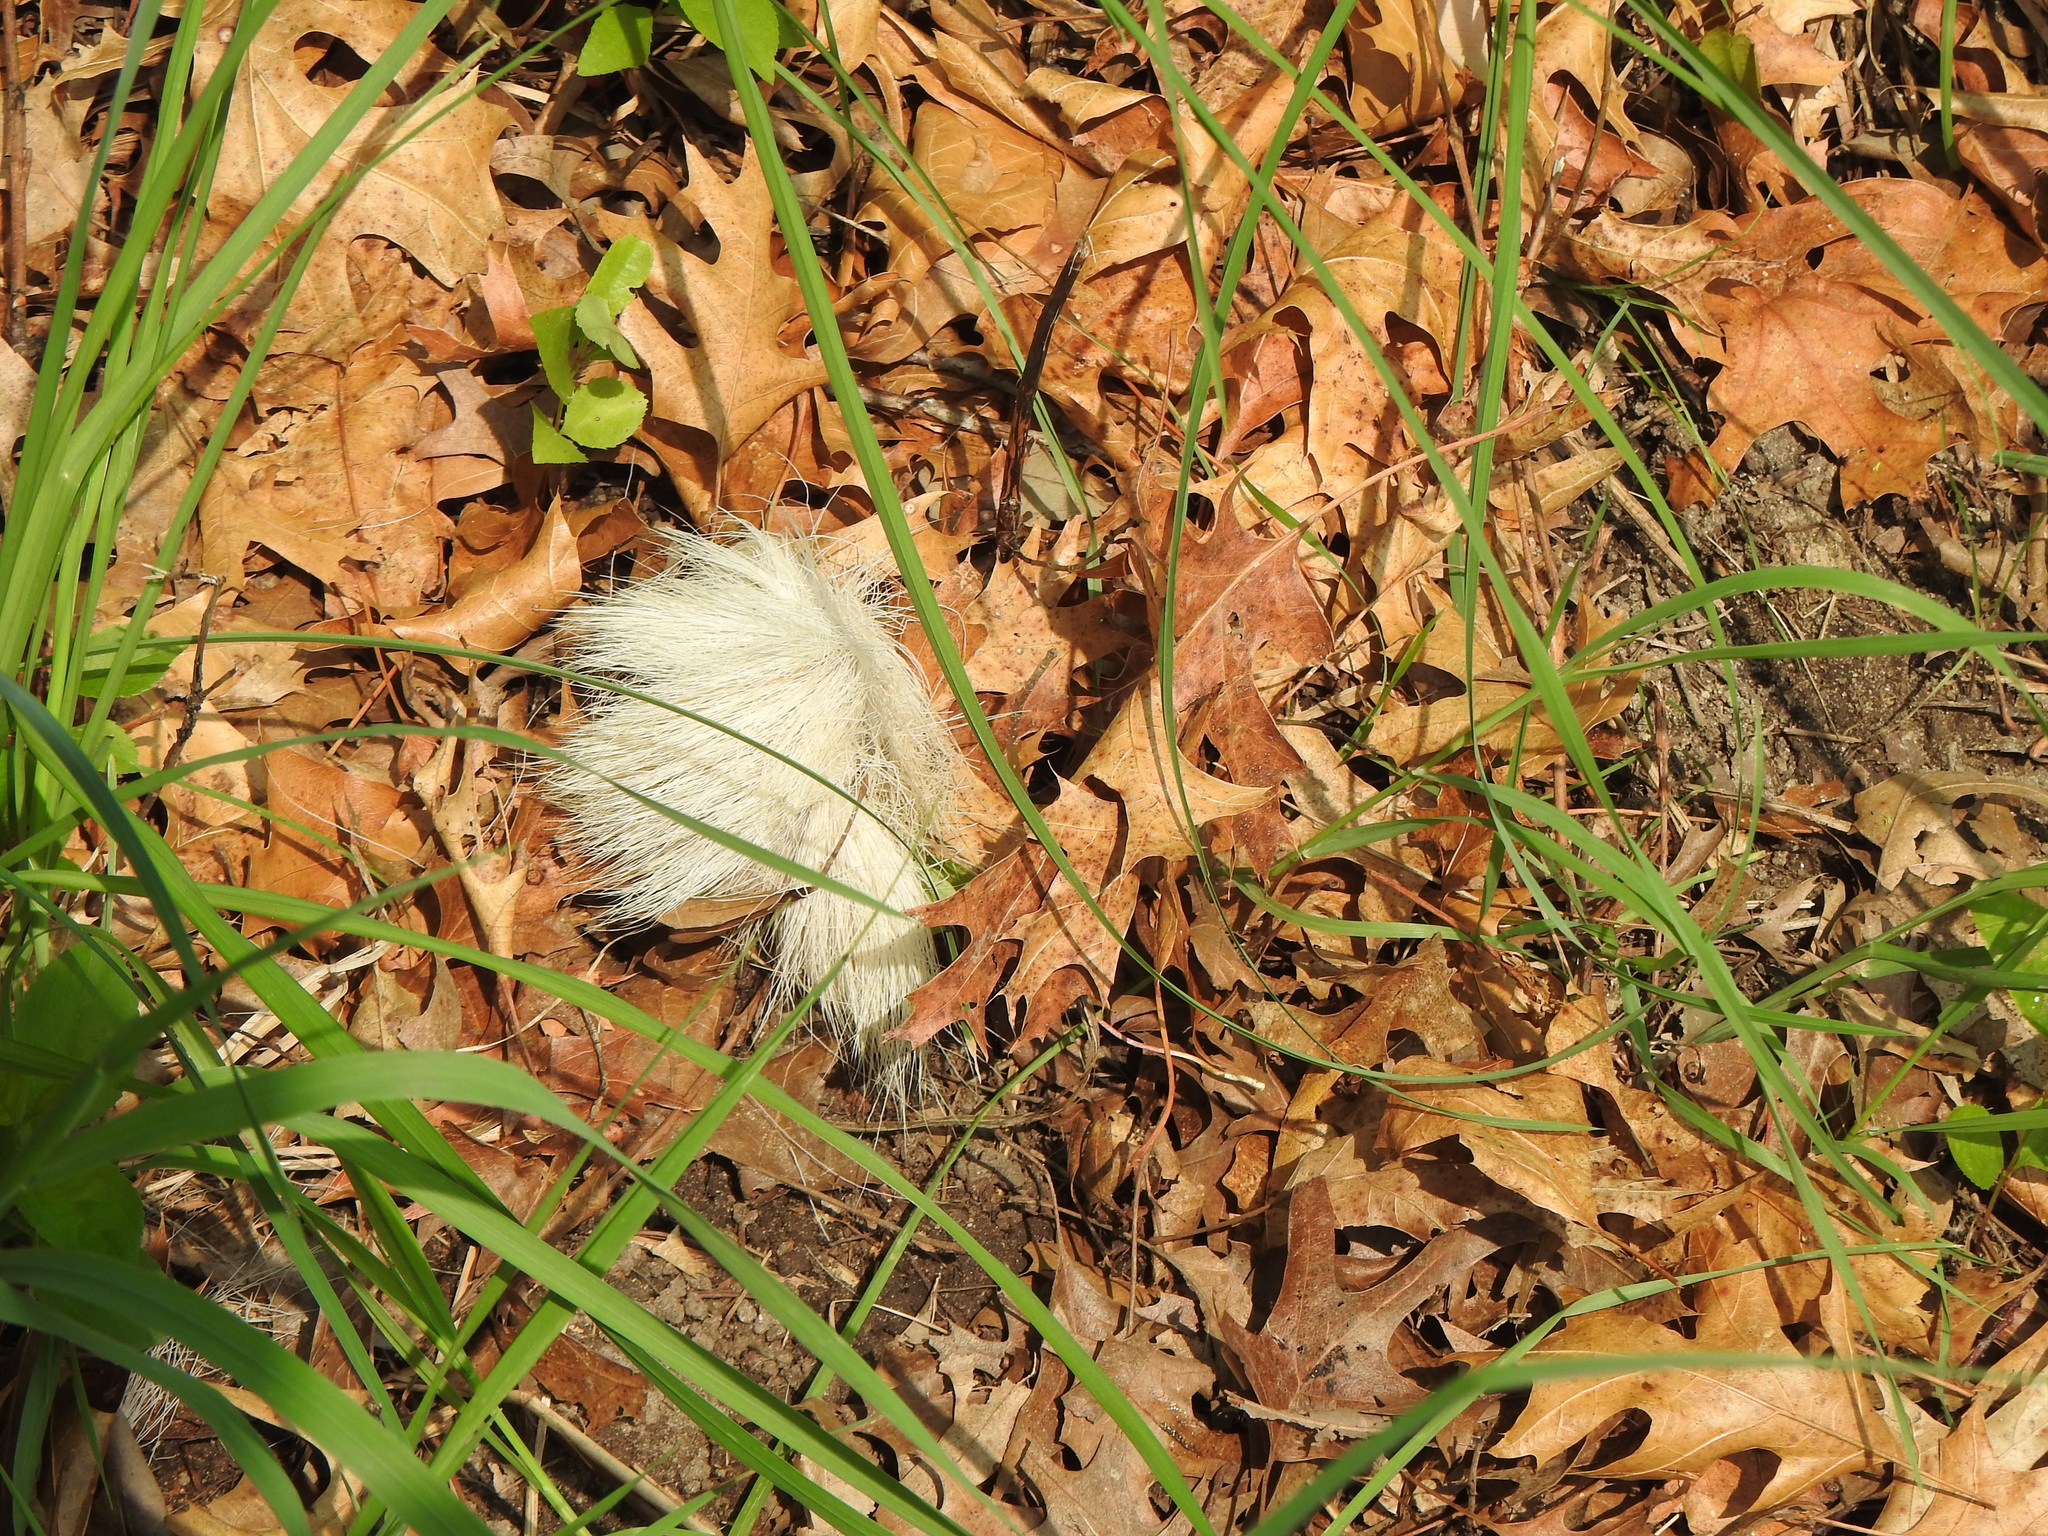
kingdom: Animalia
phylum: Chordata
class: Mammalia
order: Artiodactyla
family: Cervidae
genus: Odocoileus
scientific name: Odocoileus virginianus
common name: White-tailed deer
